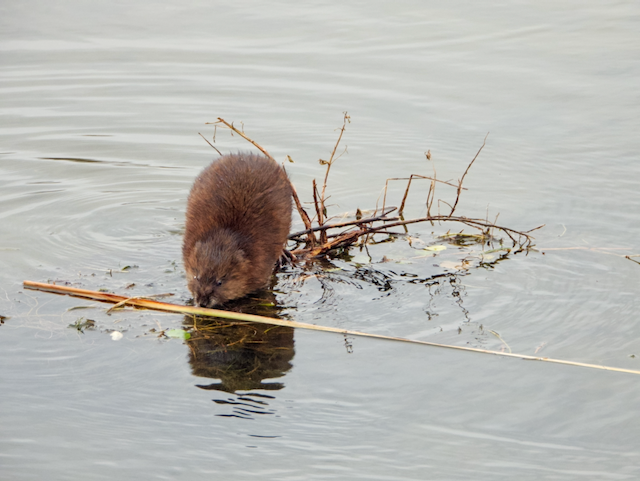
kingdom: Animalia
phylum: Chordata
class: Mammalia
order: Rodentia
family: Cricetidae
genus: Ondatra
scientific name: Ondatra zibethicus
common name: Muskrat
